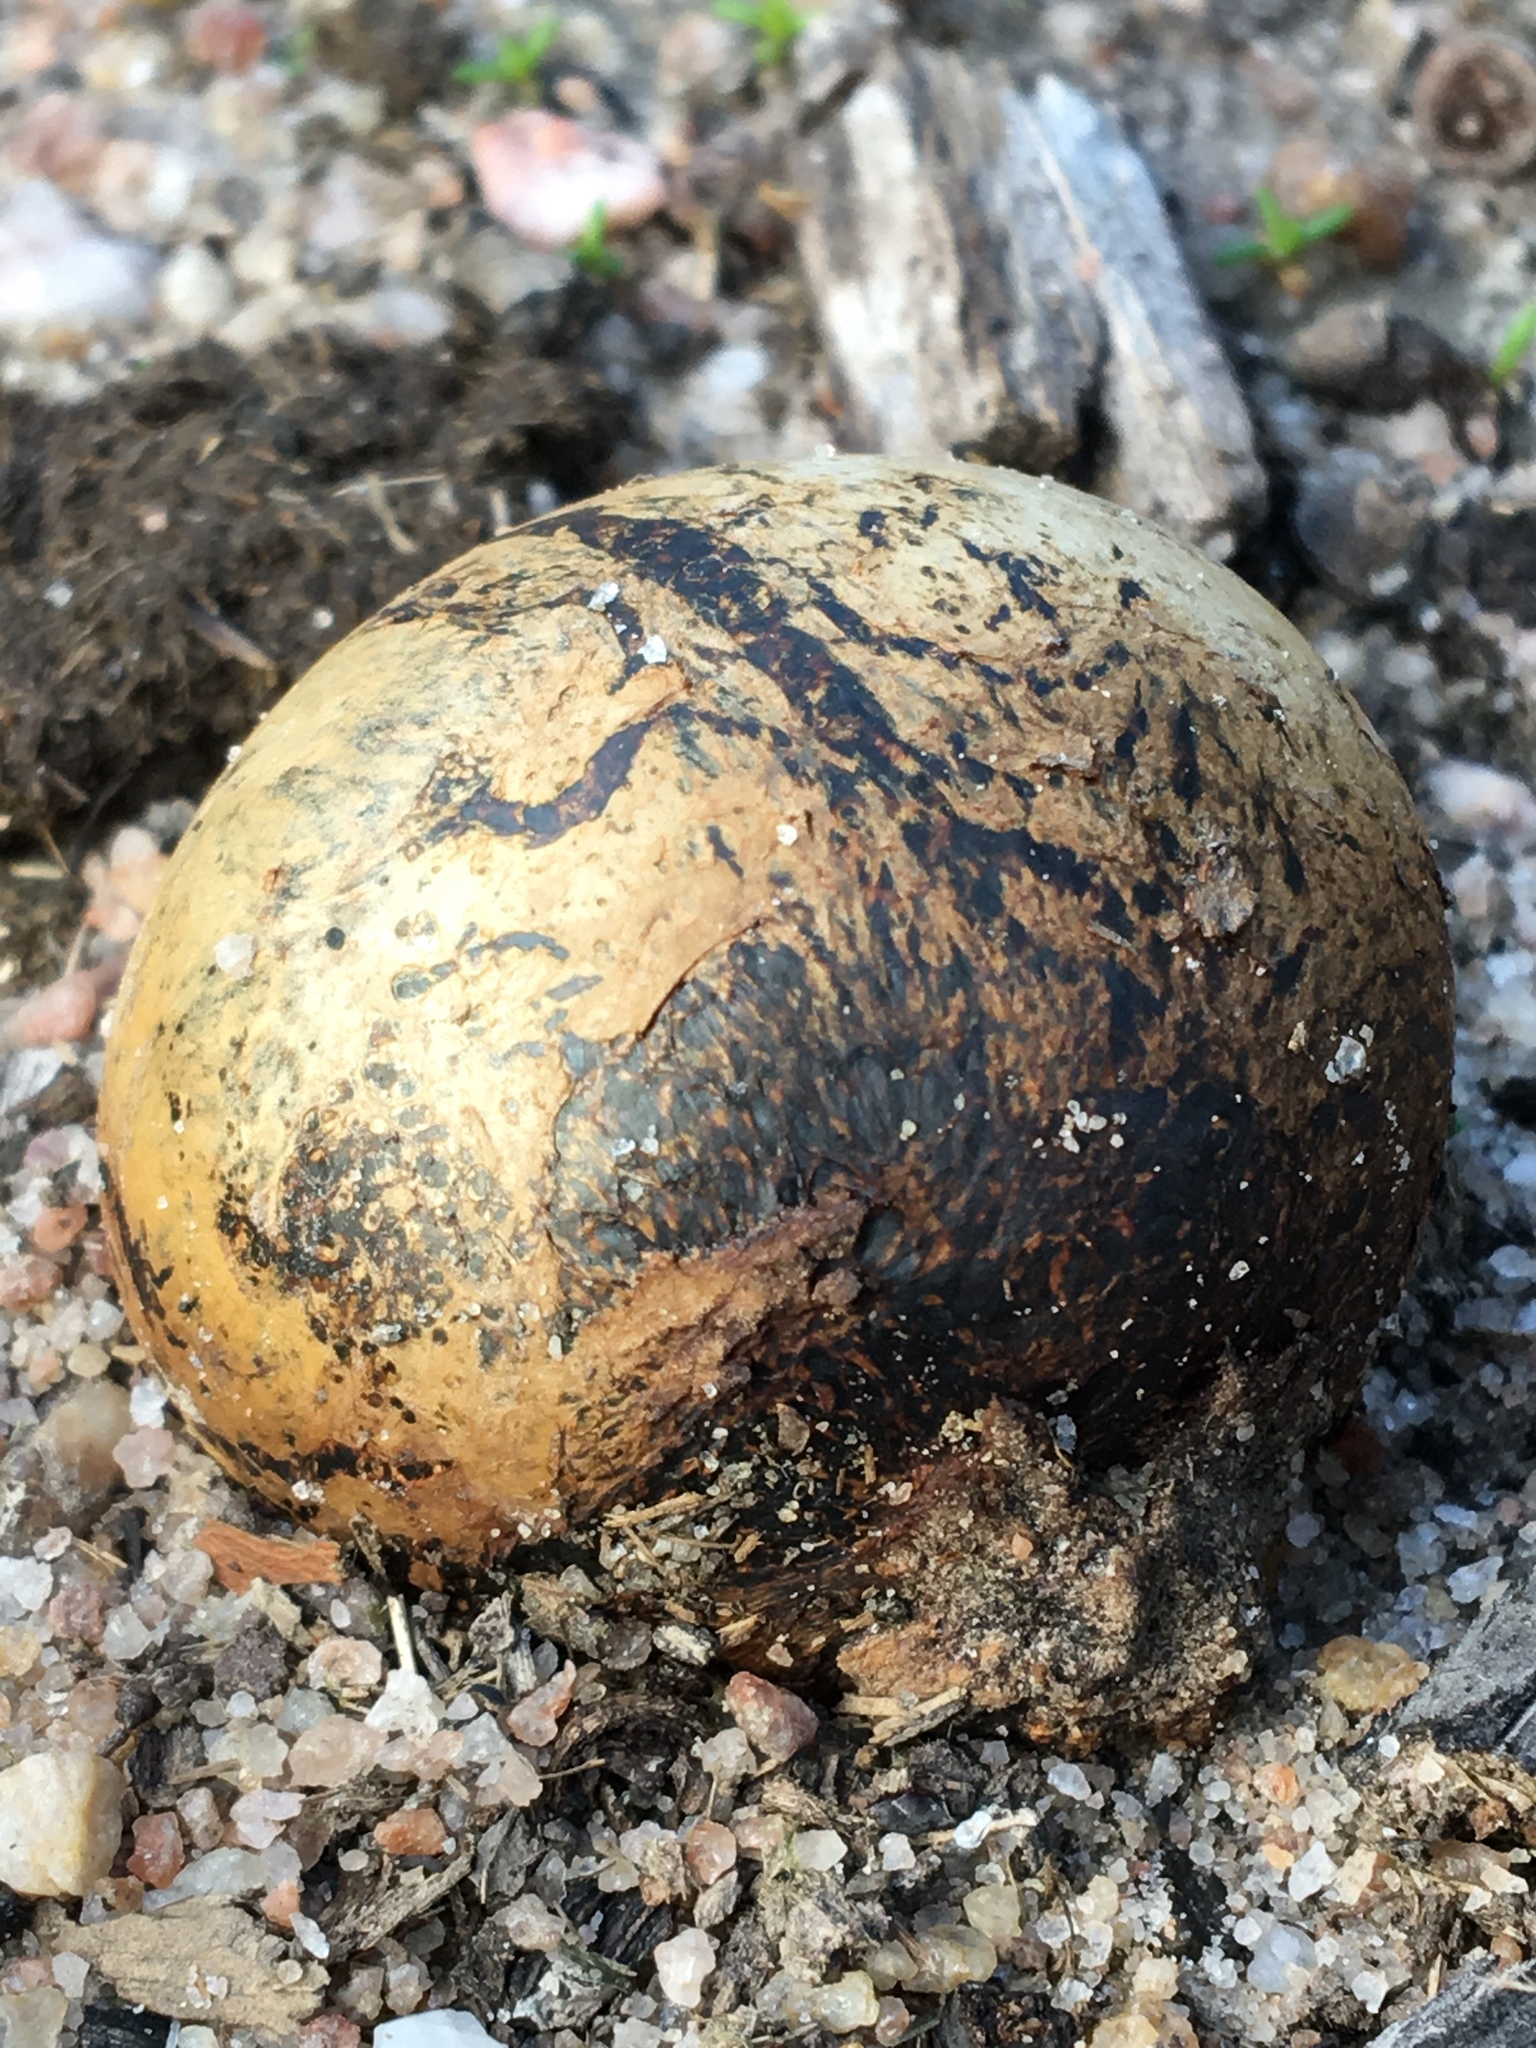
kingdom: Fungi
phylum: Basidiomycota
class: Agaricomycetes
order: Boletales
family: Sclerodermataceae
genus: Pisolithus
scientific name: Pisolithus arhizus
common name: Dyeball
